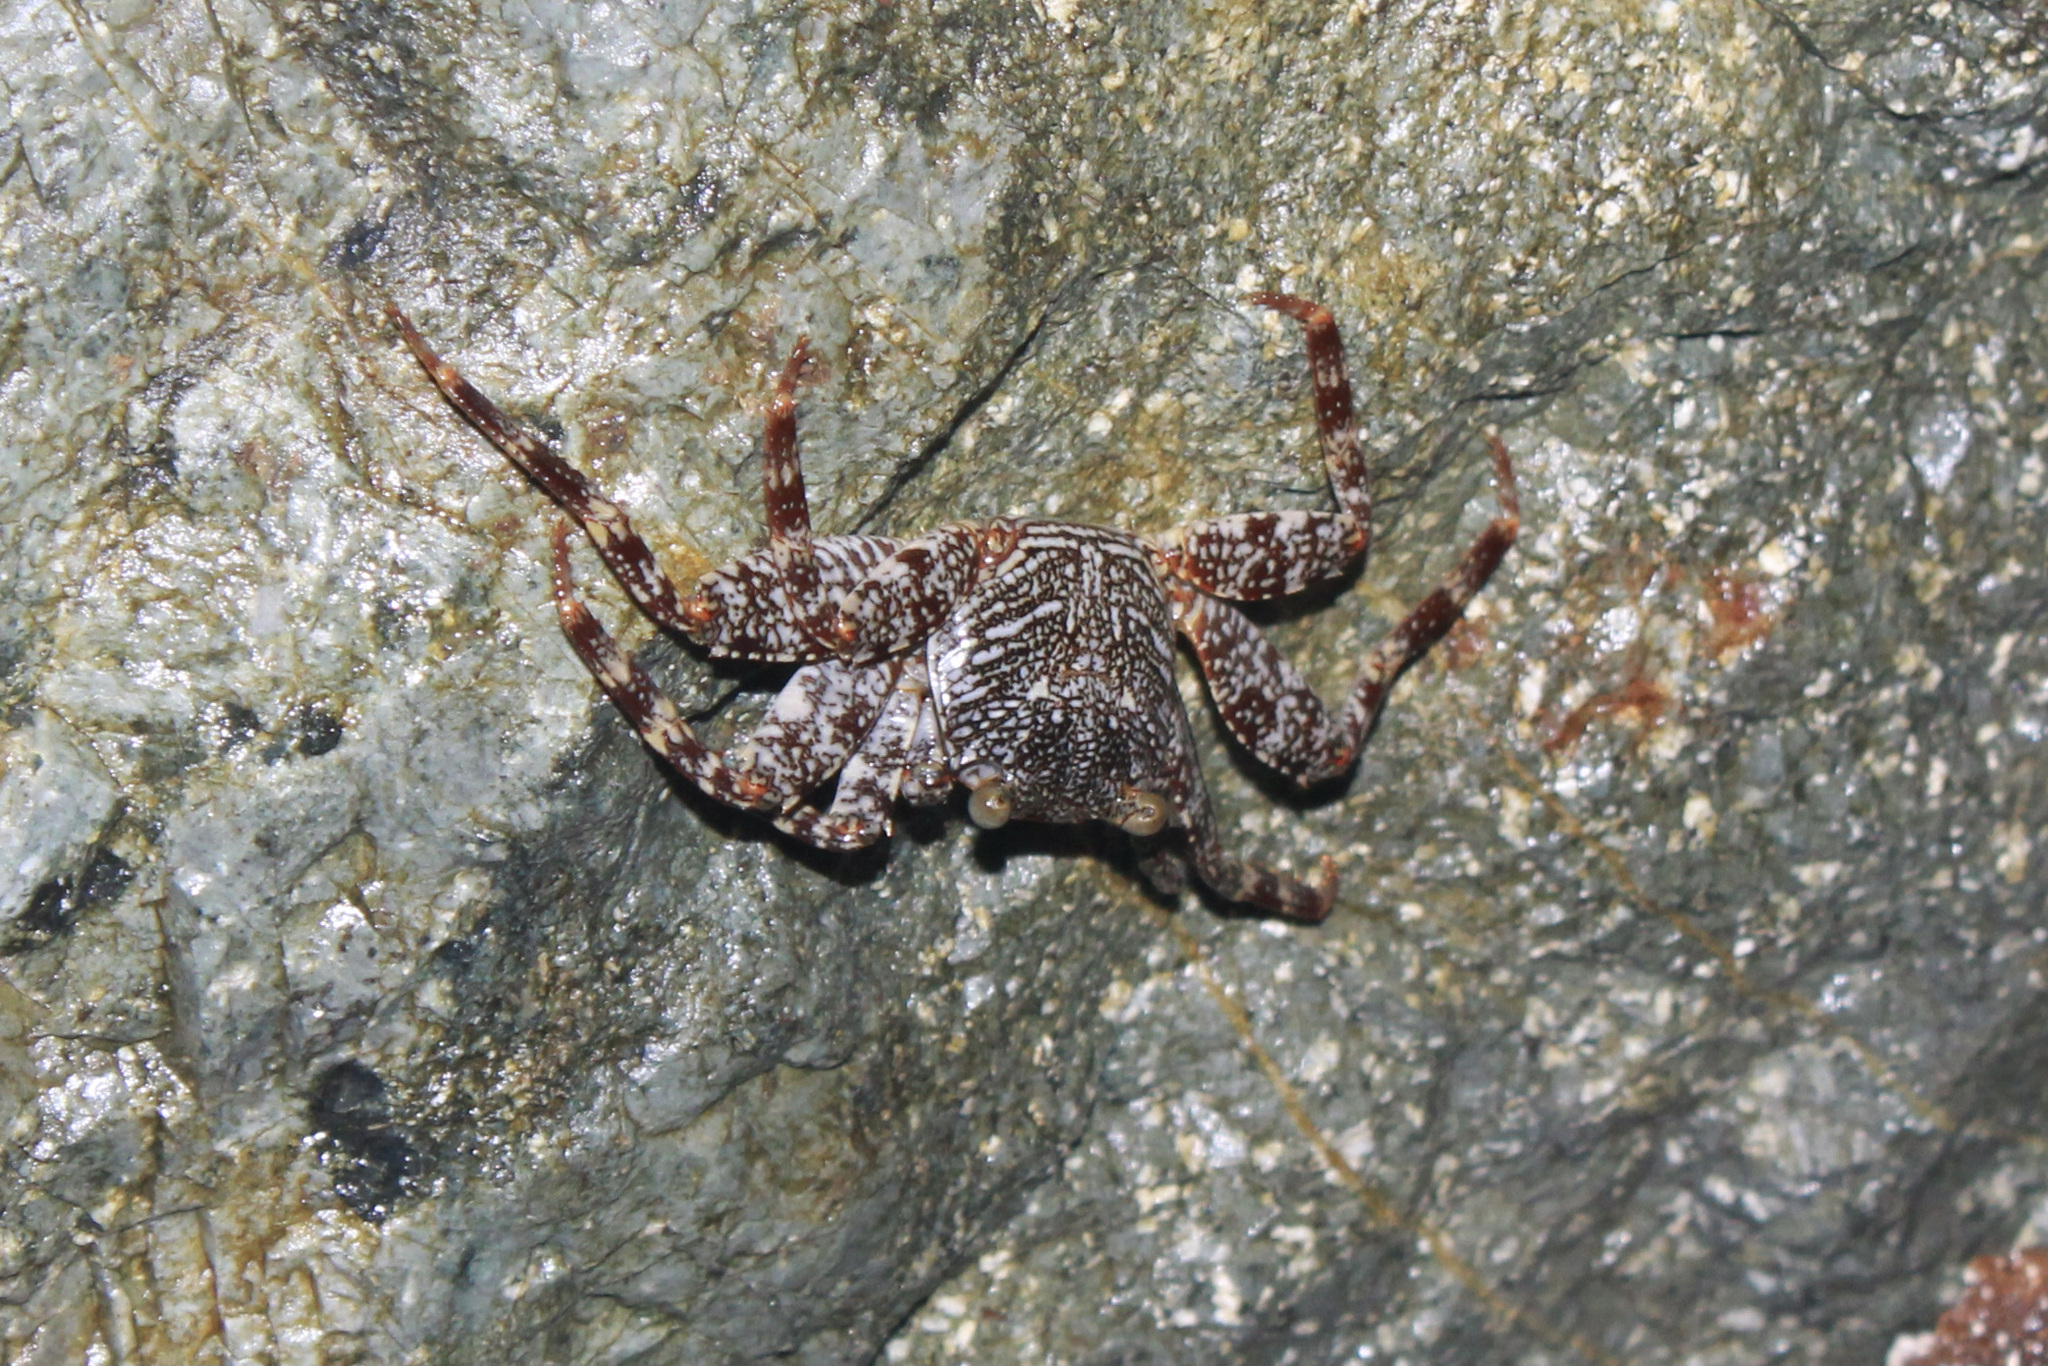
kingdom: Animalia
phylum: Arthropoda
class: Malacostraca
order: Decapoda
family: Grapsidae
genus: Grapsus
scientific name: Grapsus grapsus
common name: Sally lightfoot
